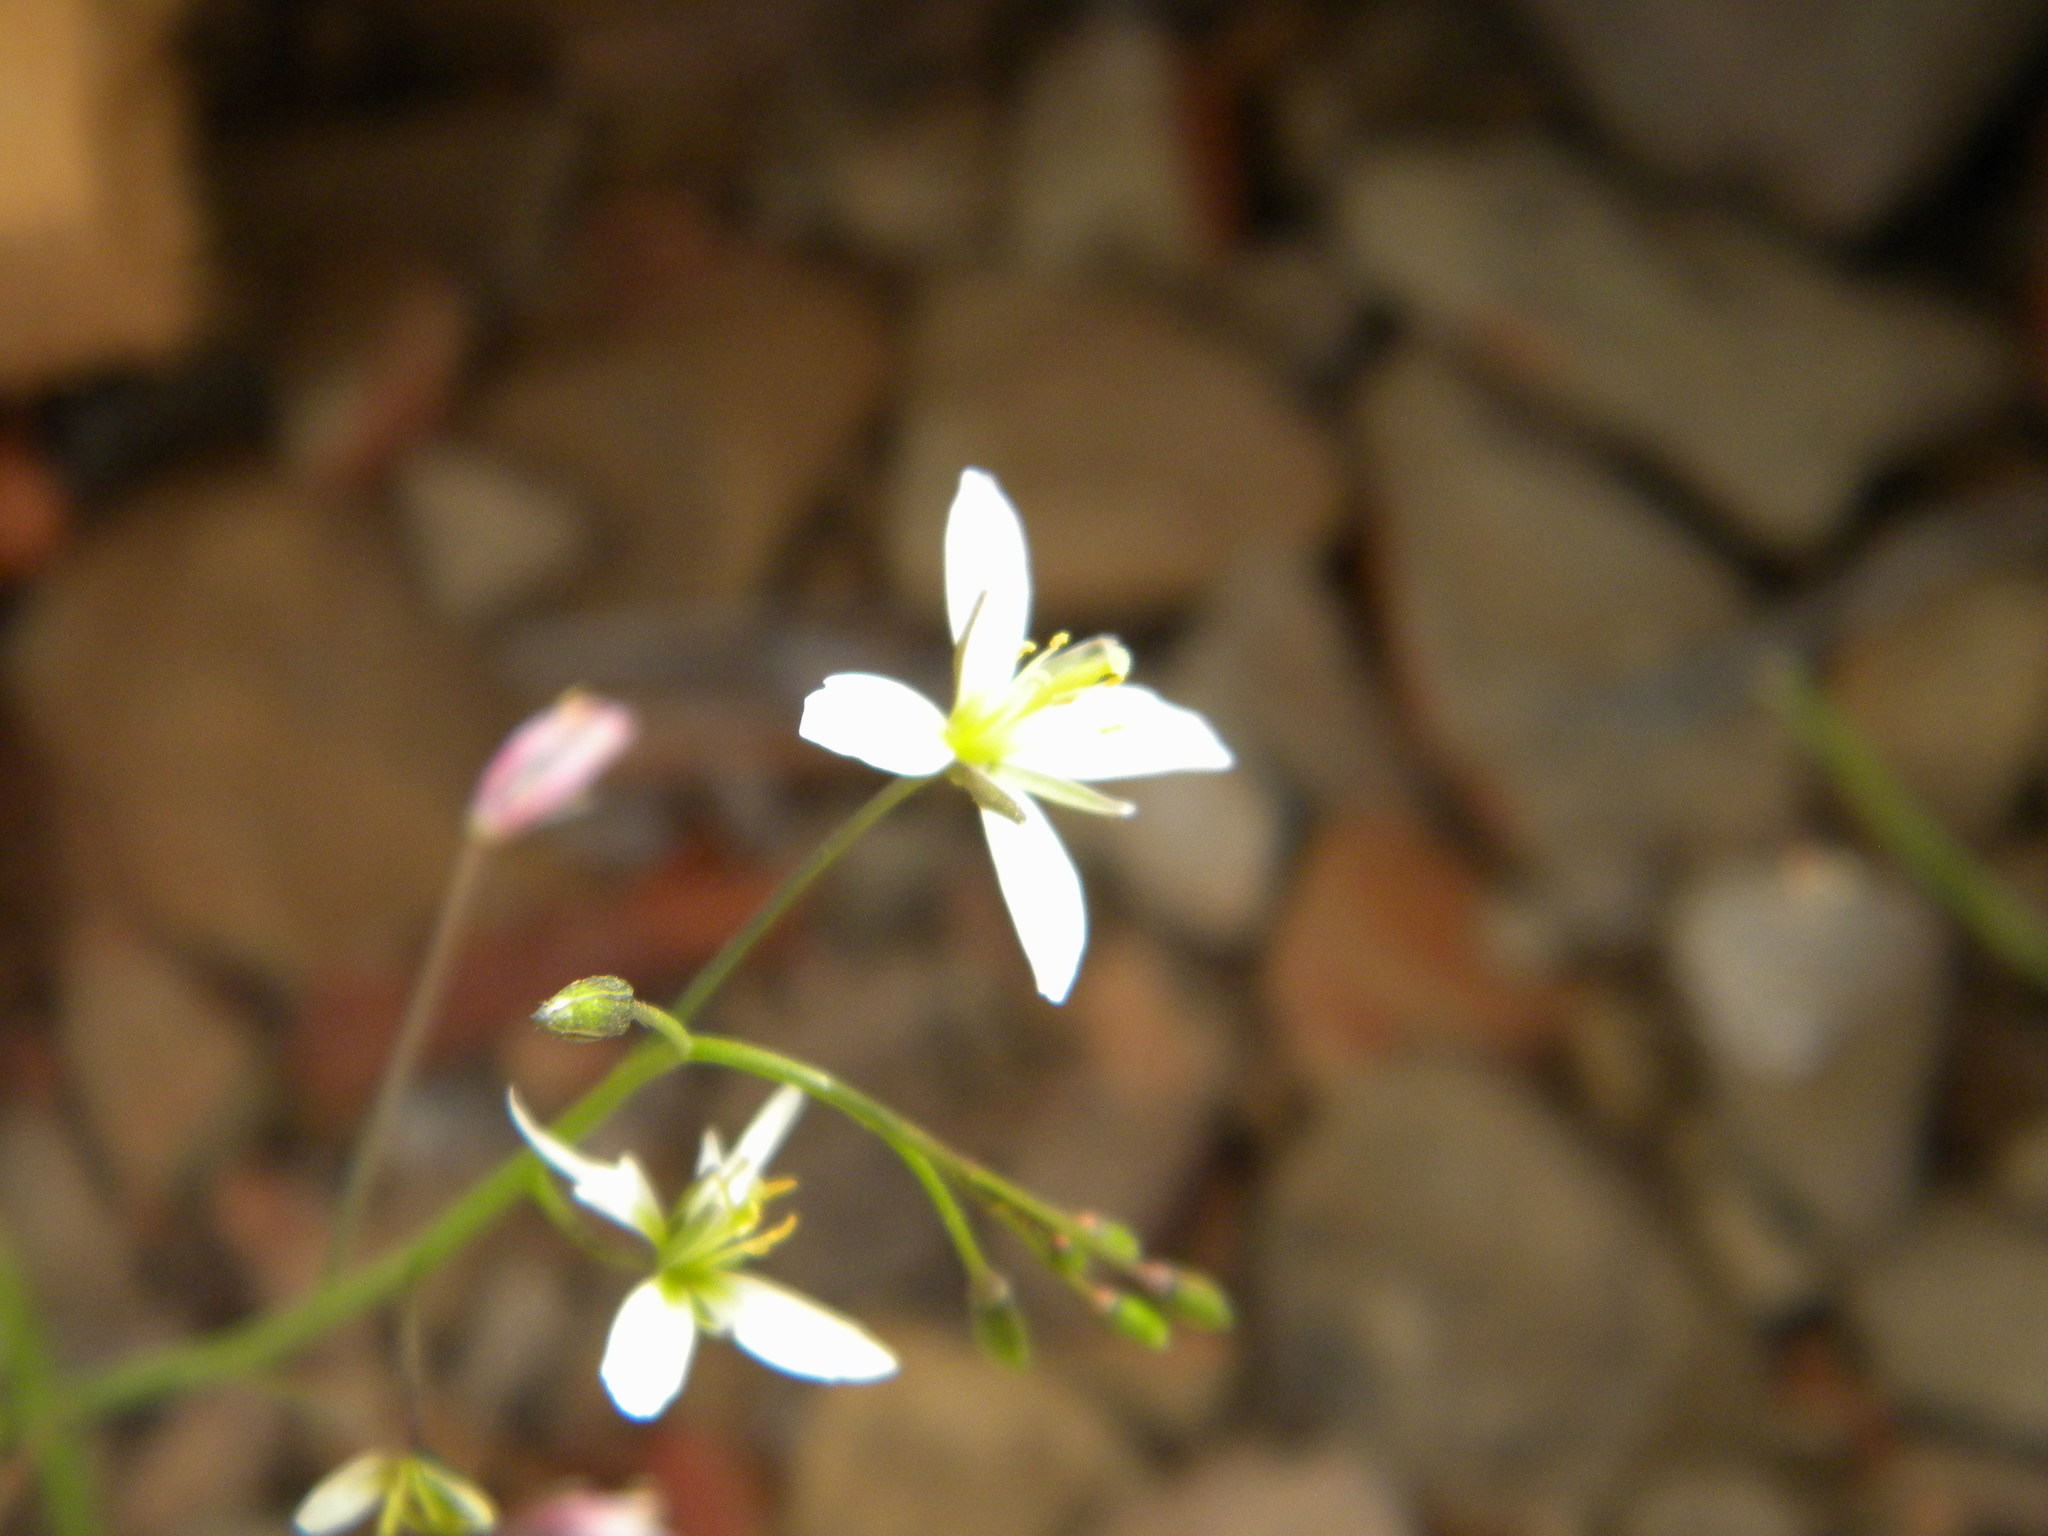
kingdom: Plantae
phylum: Tracheophyta
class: Magnoliopsida
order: Brassicales
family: Brassicaceae
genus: Heliophila
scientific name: Heliophila pendula
